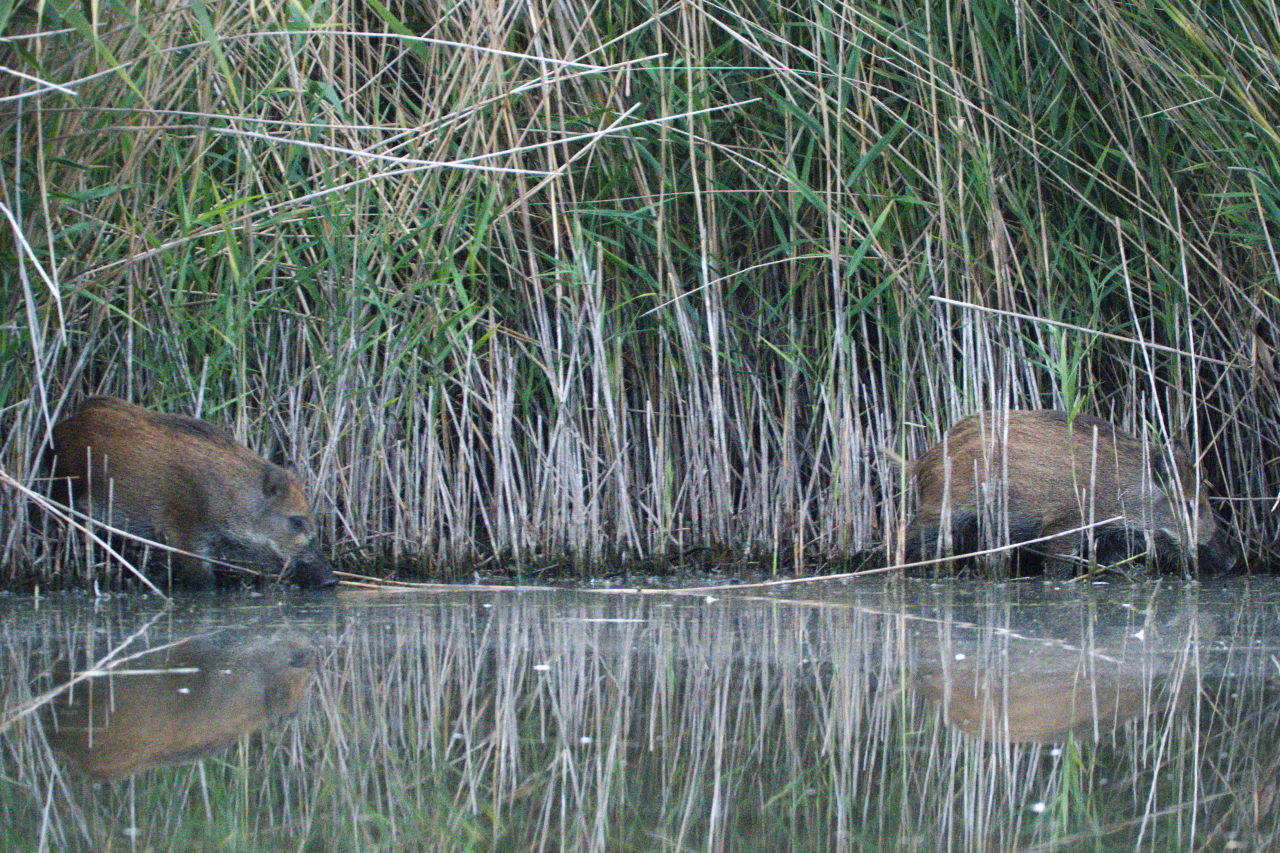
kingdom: Animalia
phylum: Chordata
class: Mammalia
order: Artiodactyla
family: Suidae
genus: Sus
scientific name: Sus scrofa
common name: Wild boar
